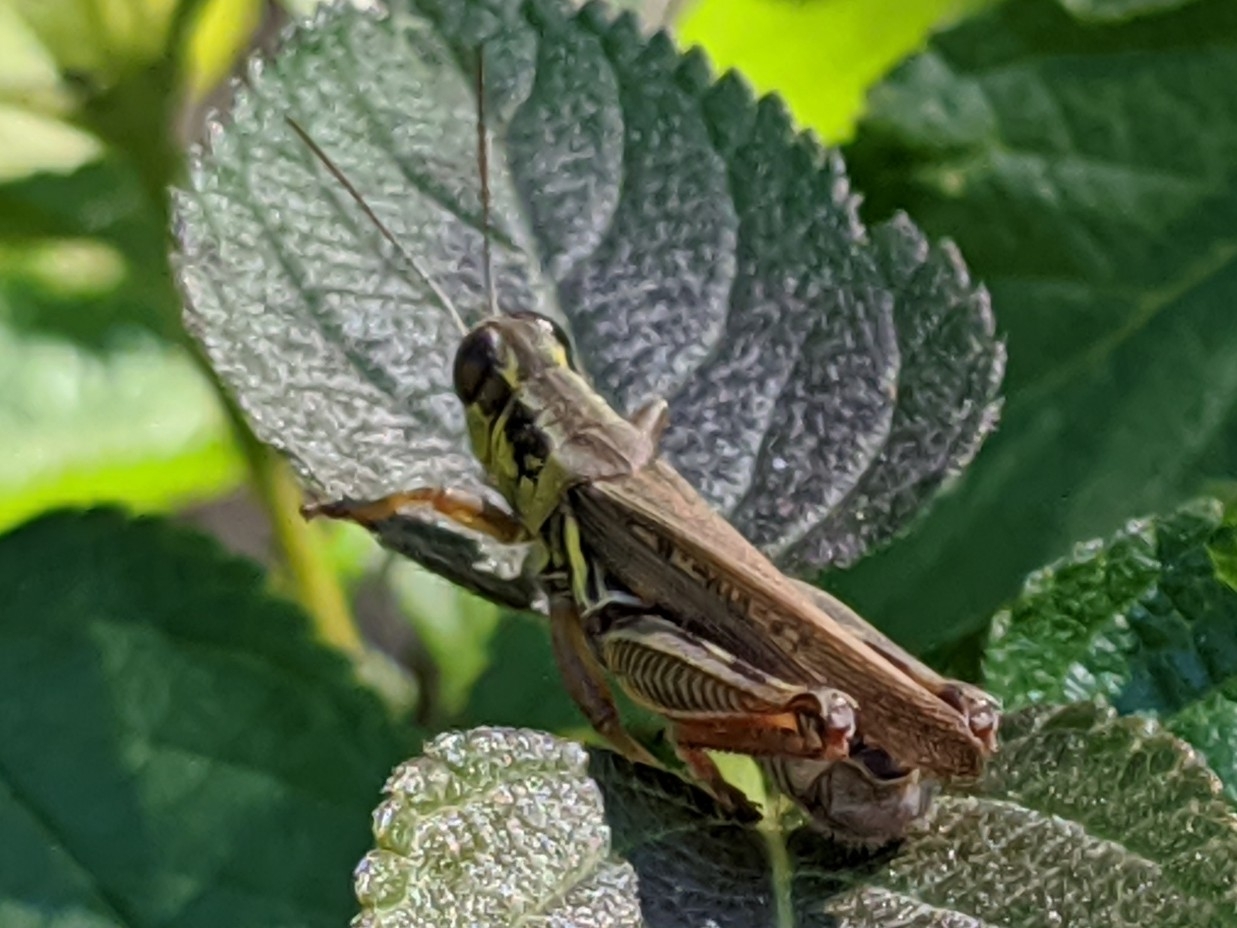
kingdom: Animalia
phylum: Arthropoda
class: Insecta
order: Orthoptera
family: Acrididae
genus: Melanoplus
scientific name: Melanoplus femurrubrum
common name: Red-legged grasshopper
